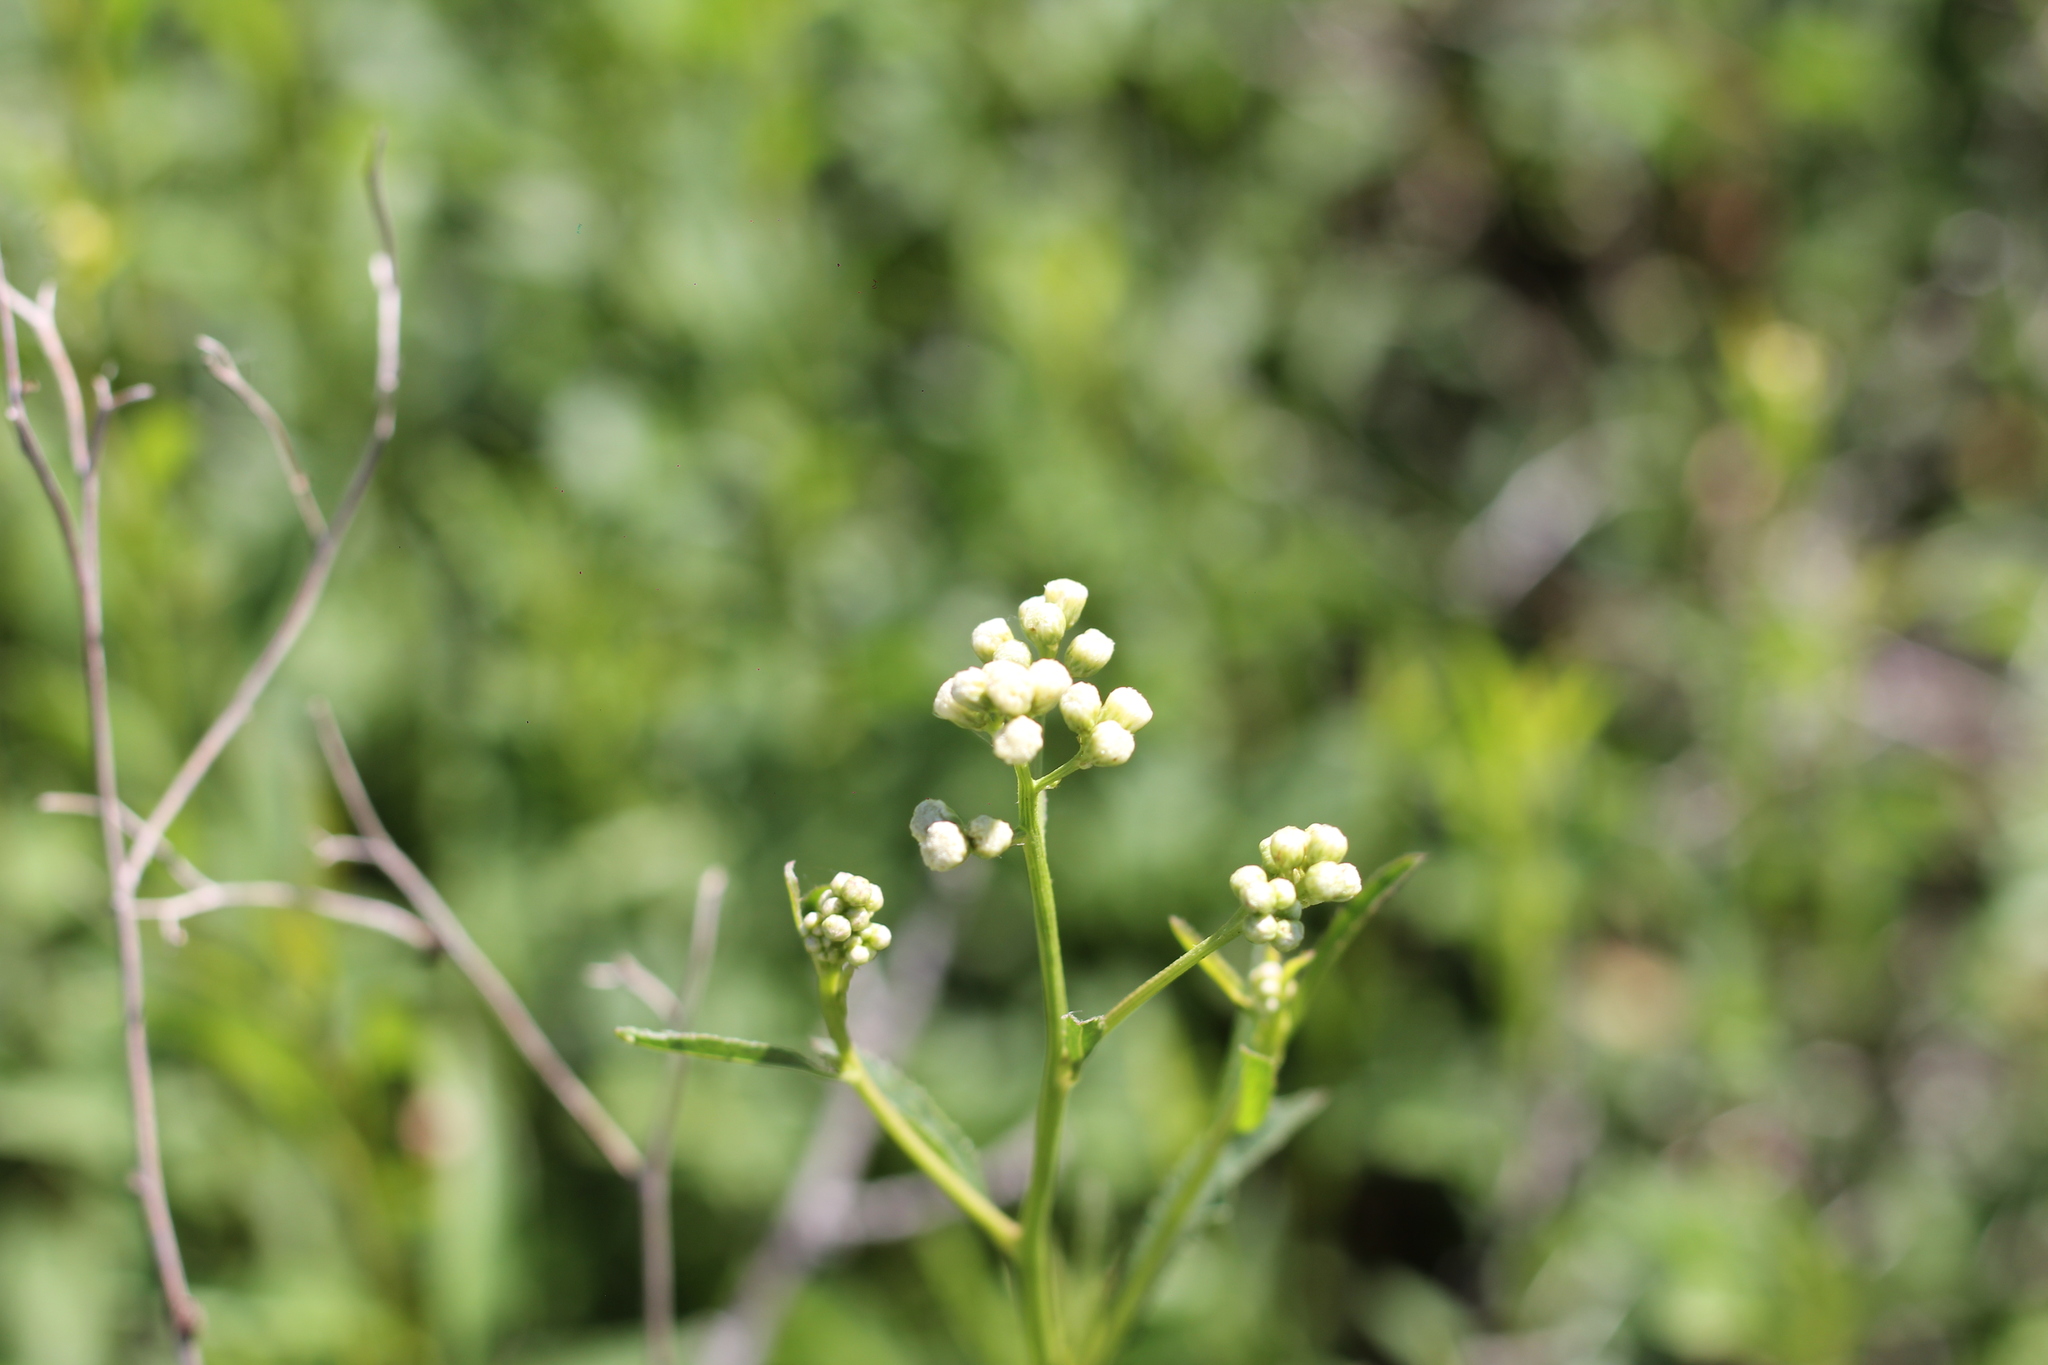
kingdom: Plantae
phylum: Tracheophyta
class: Magnoliopsida
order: Asterales
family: Asteraceae
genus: Baccharis
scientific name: Baccharis glutinosa
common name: Saltmarsh baccharis
